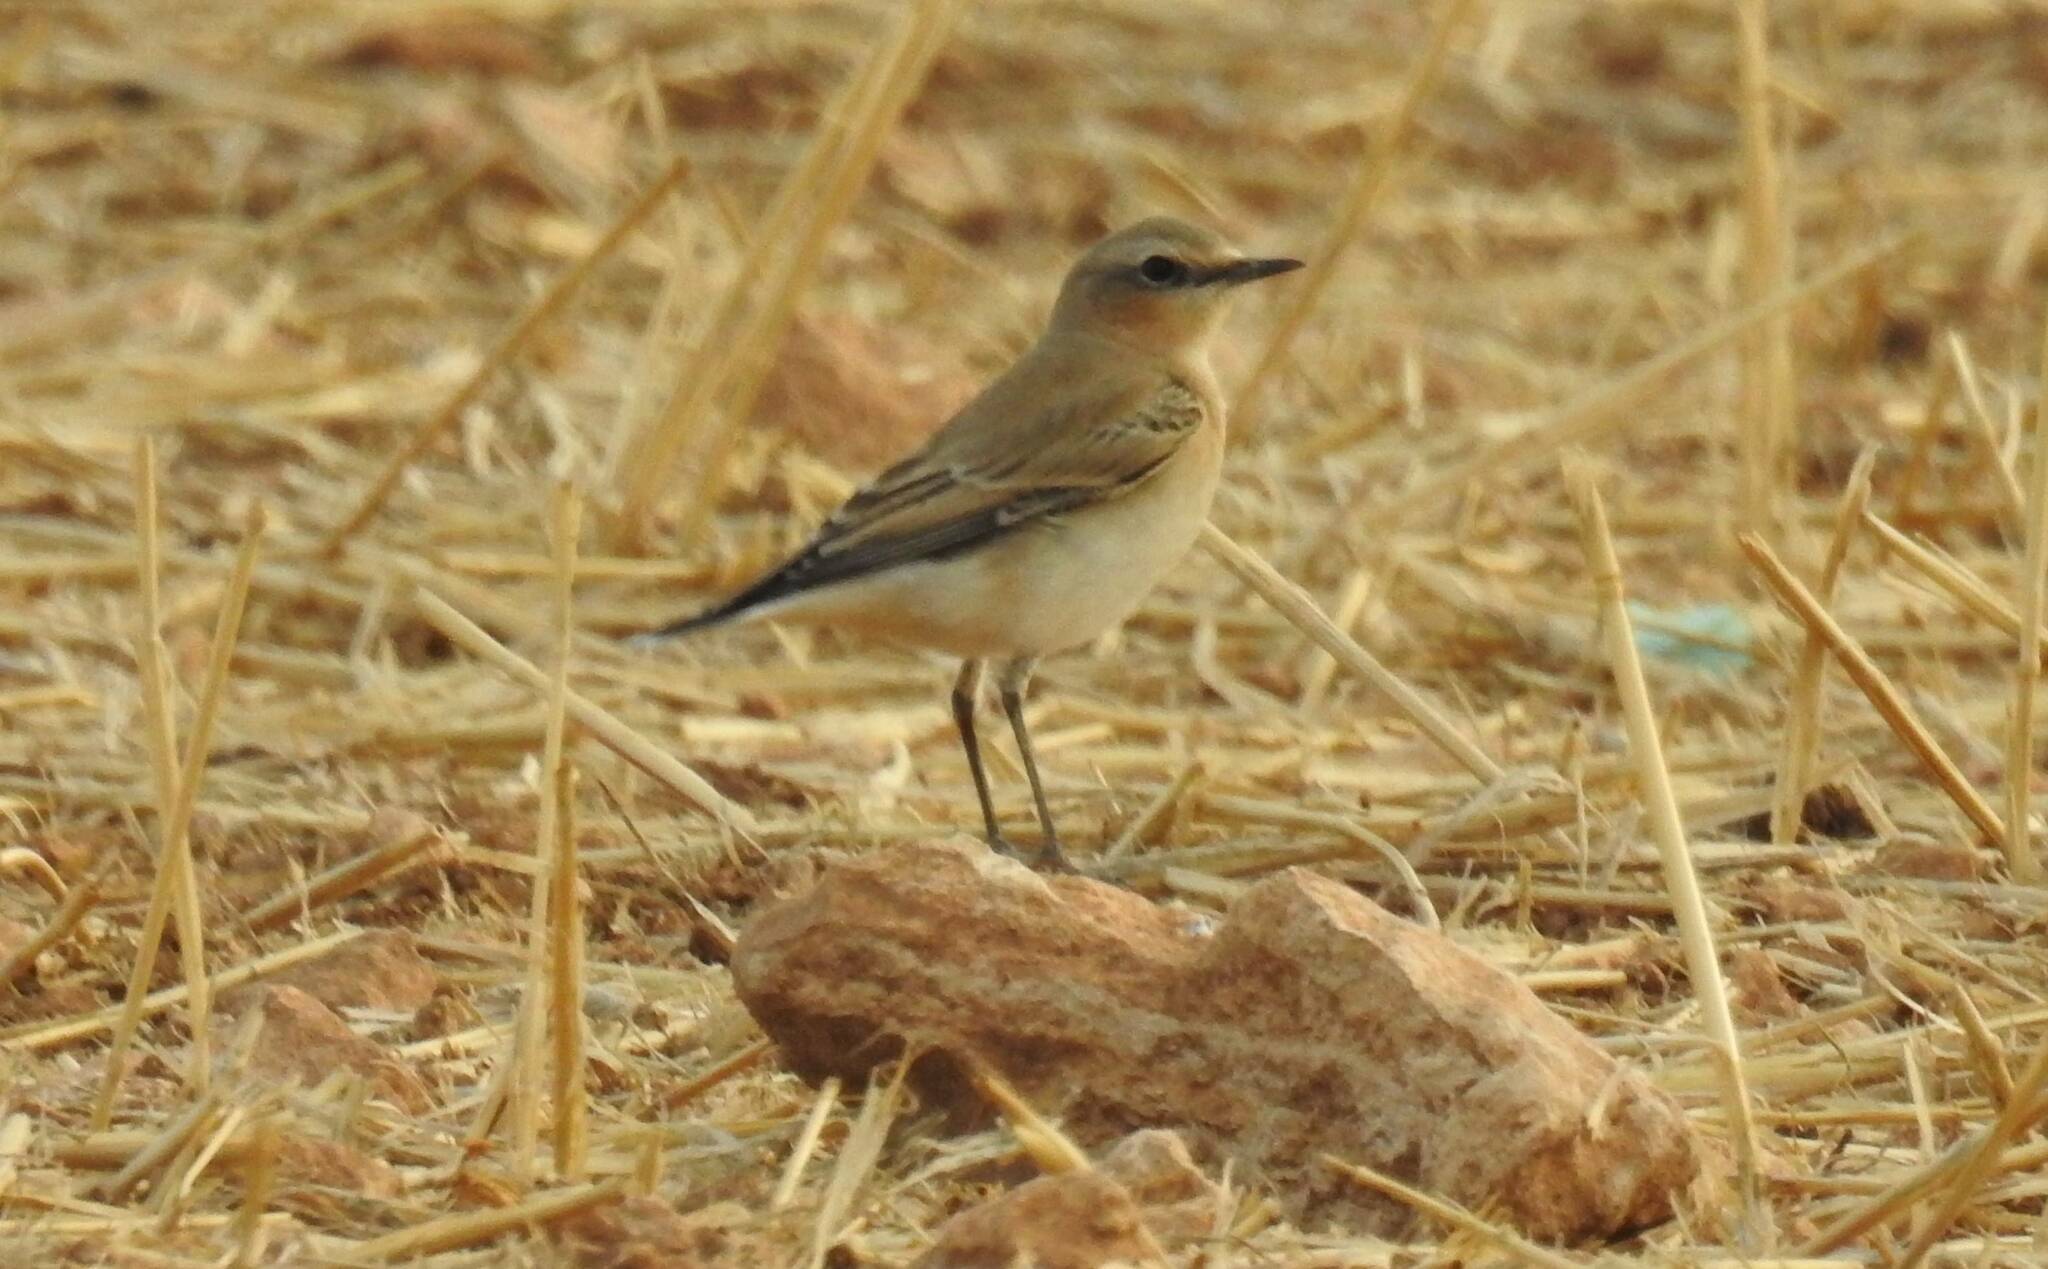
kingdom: Animalia
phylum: Chordata
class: Aves
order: Passeriformes
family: Muscicapidae
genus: Oenanthe
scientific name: Oenanthe oenanthe
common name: Northern wheatear
